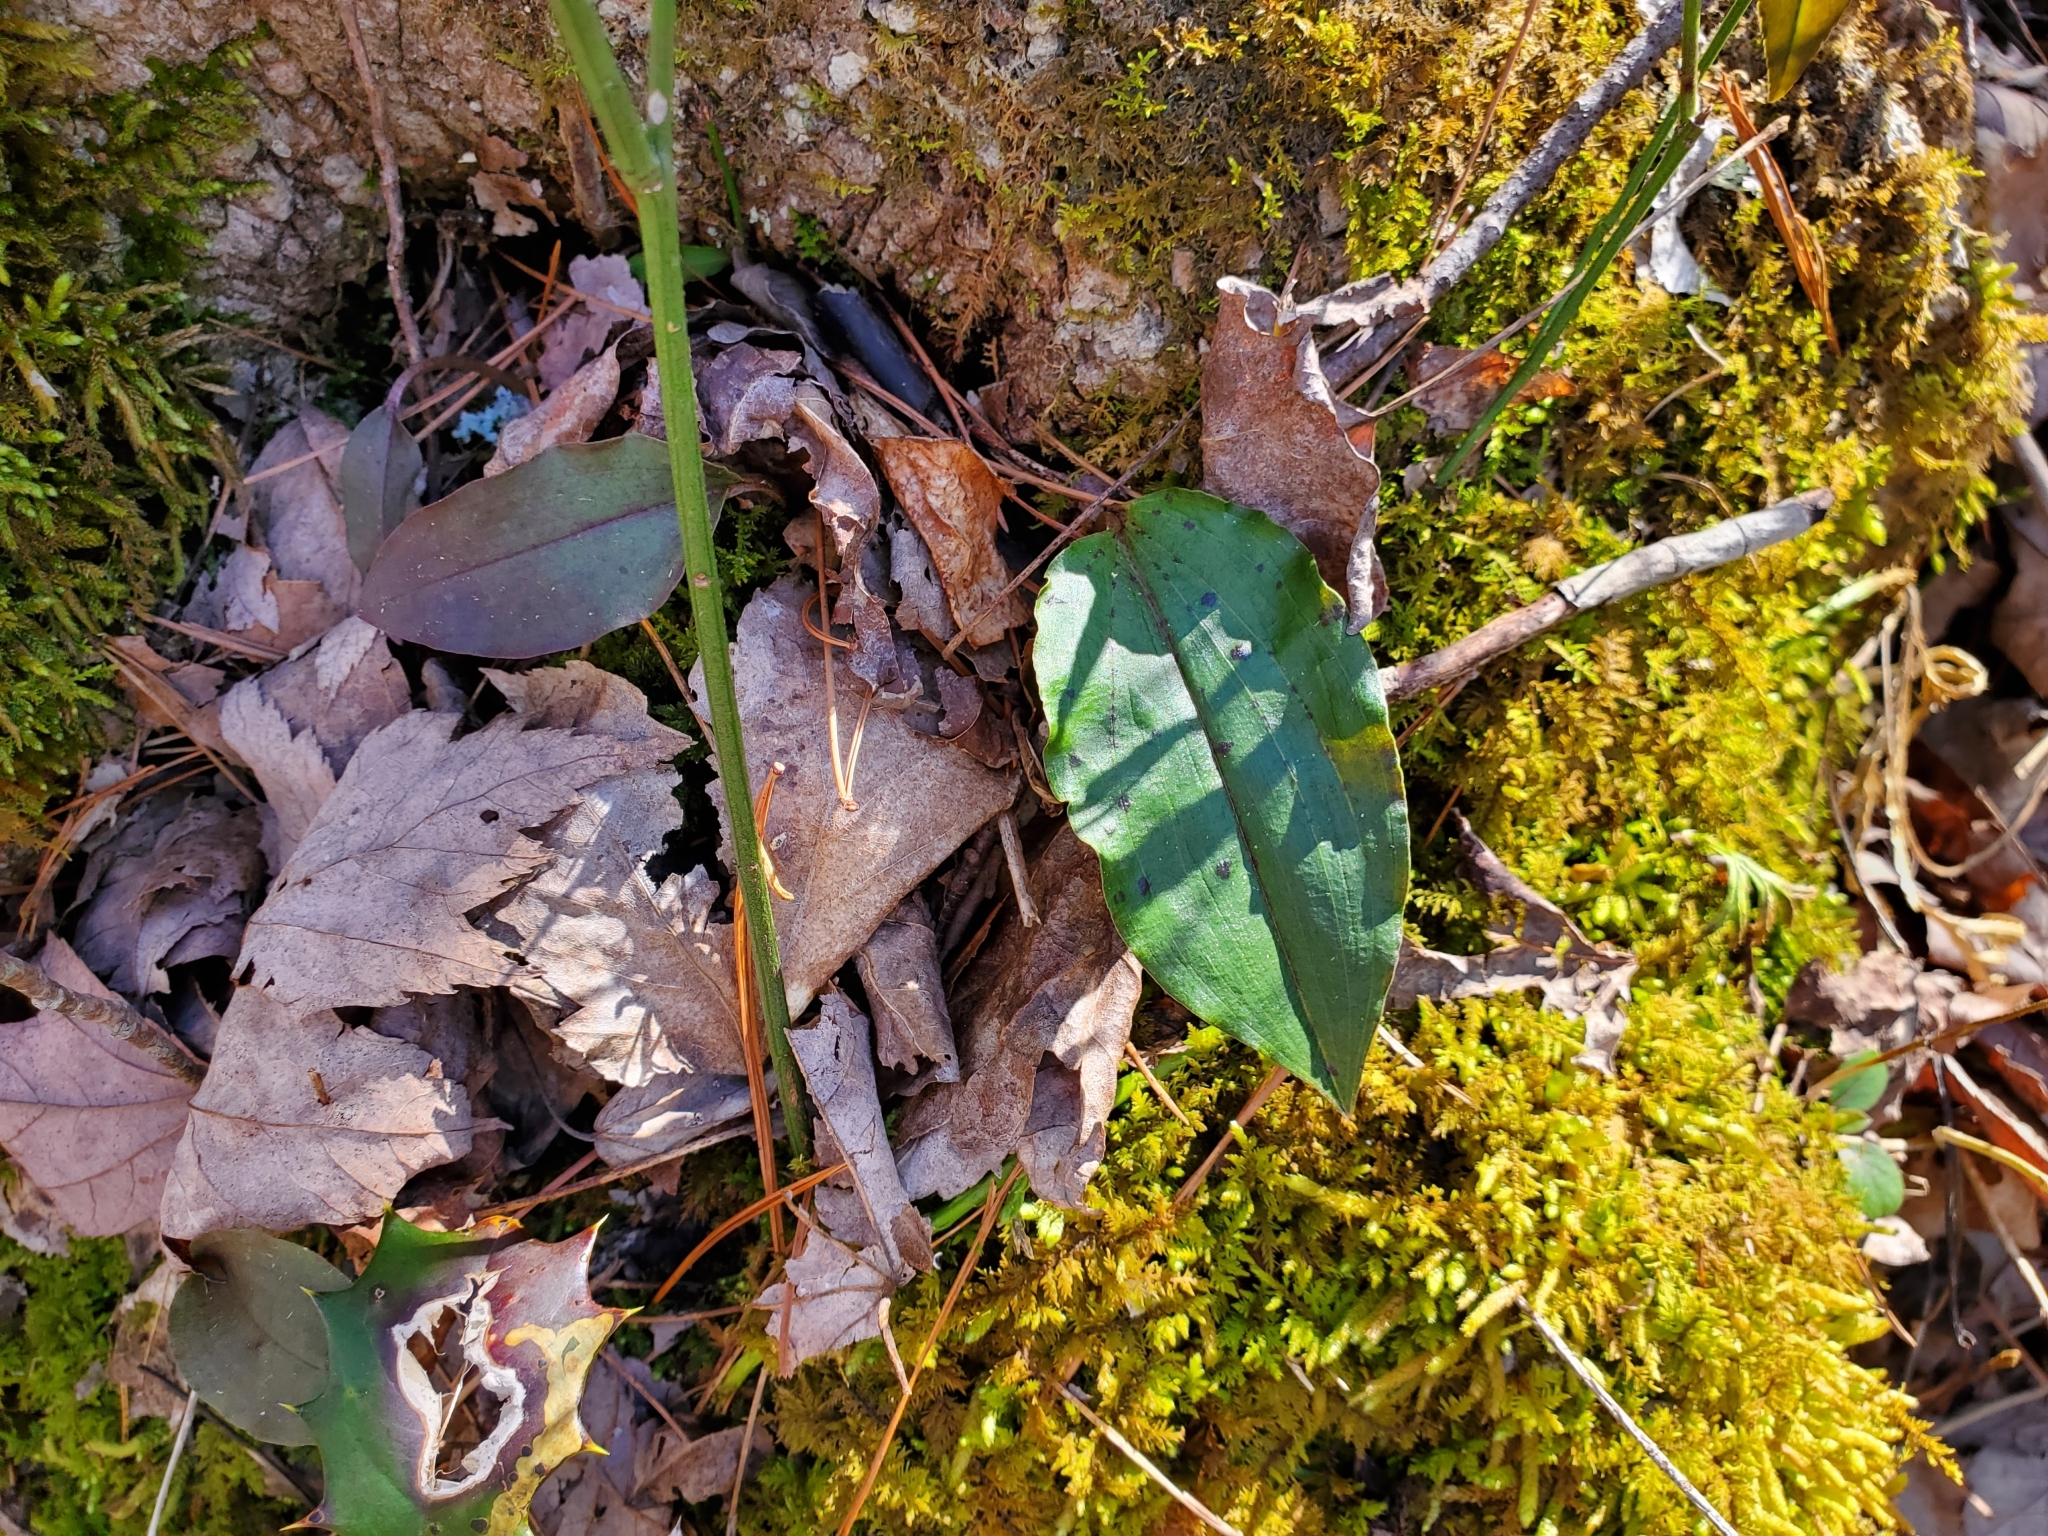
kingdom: Plantae
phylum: Tracheophyta
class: Liliopsida
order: Asparagales
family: Orchidaceae
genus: Tipularia
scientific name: Tipularia discolor
